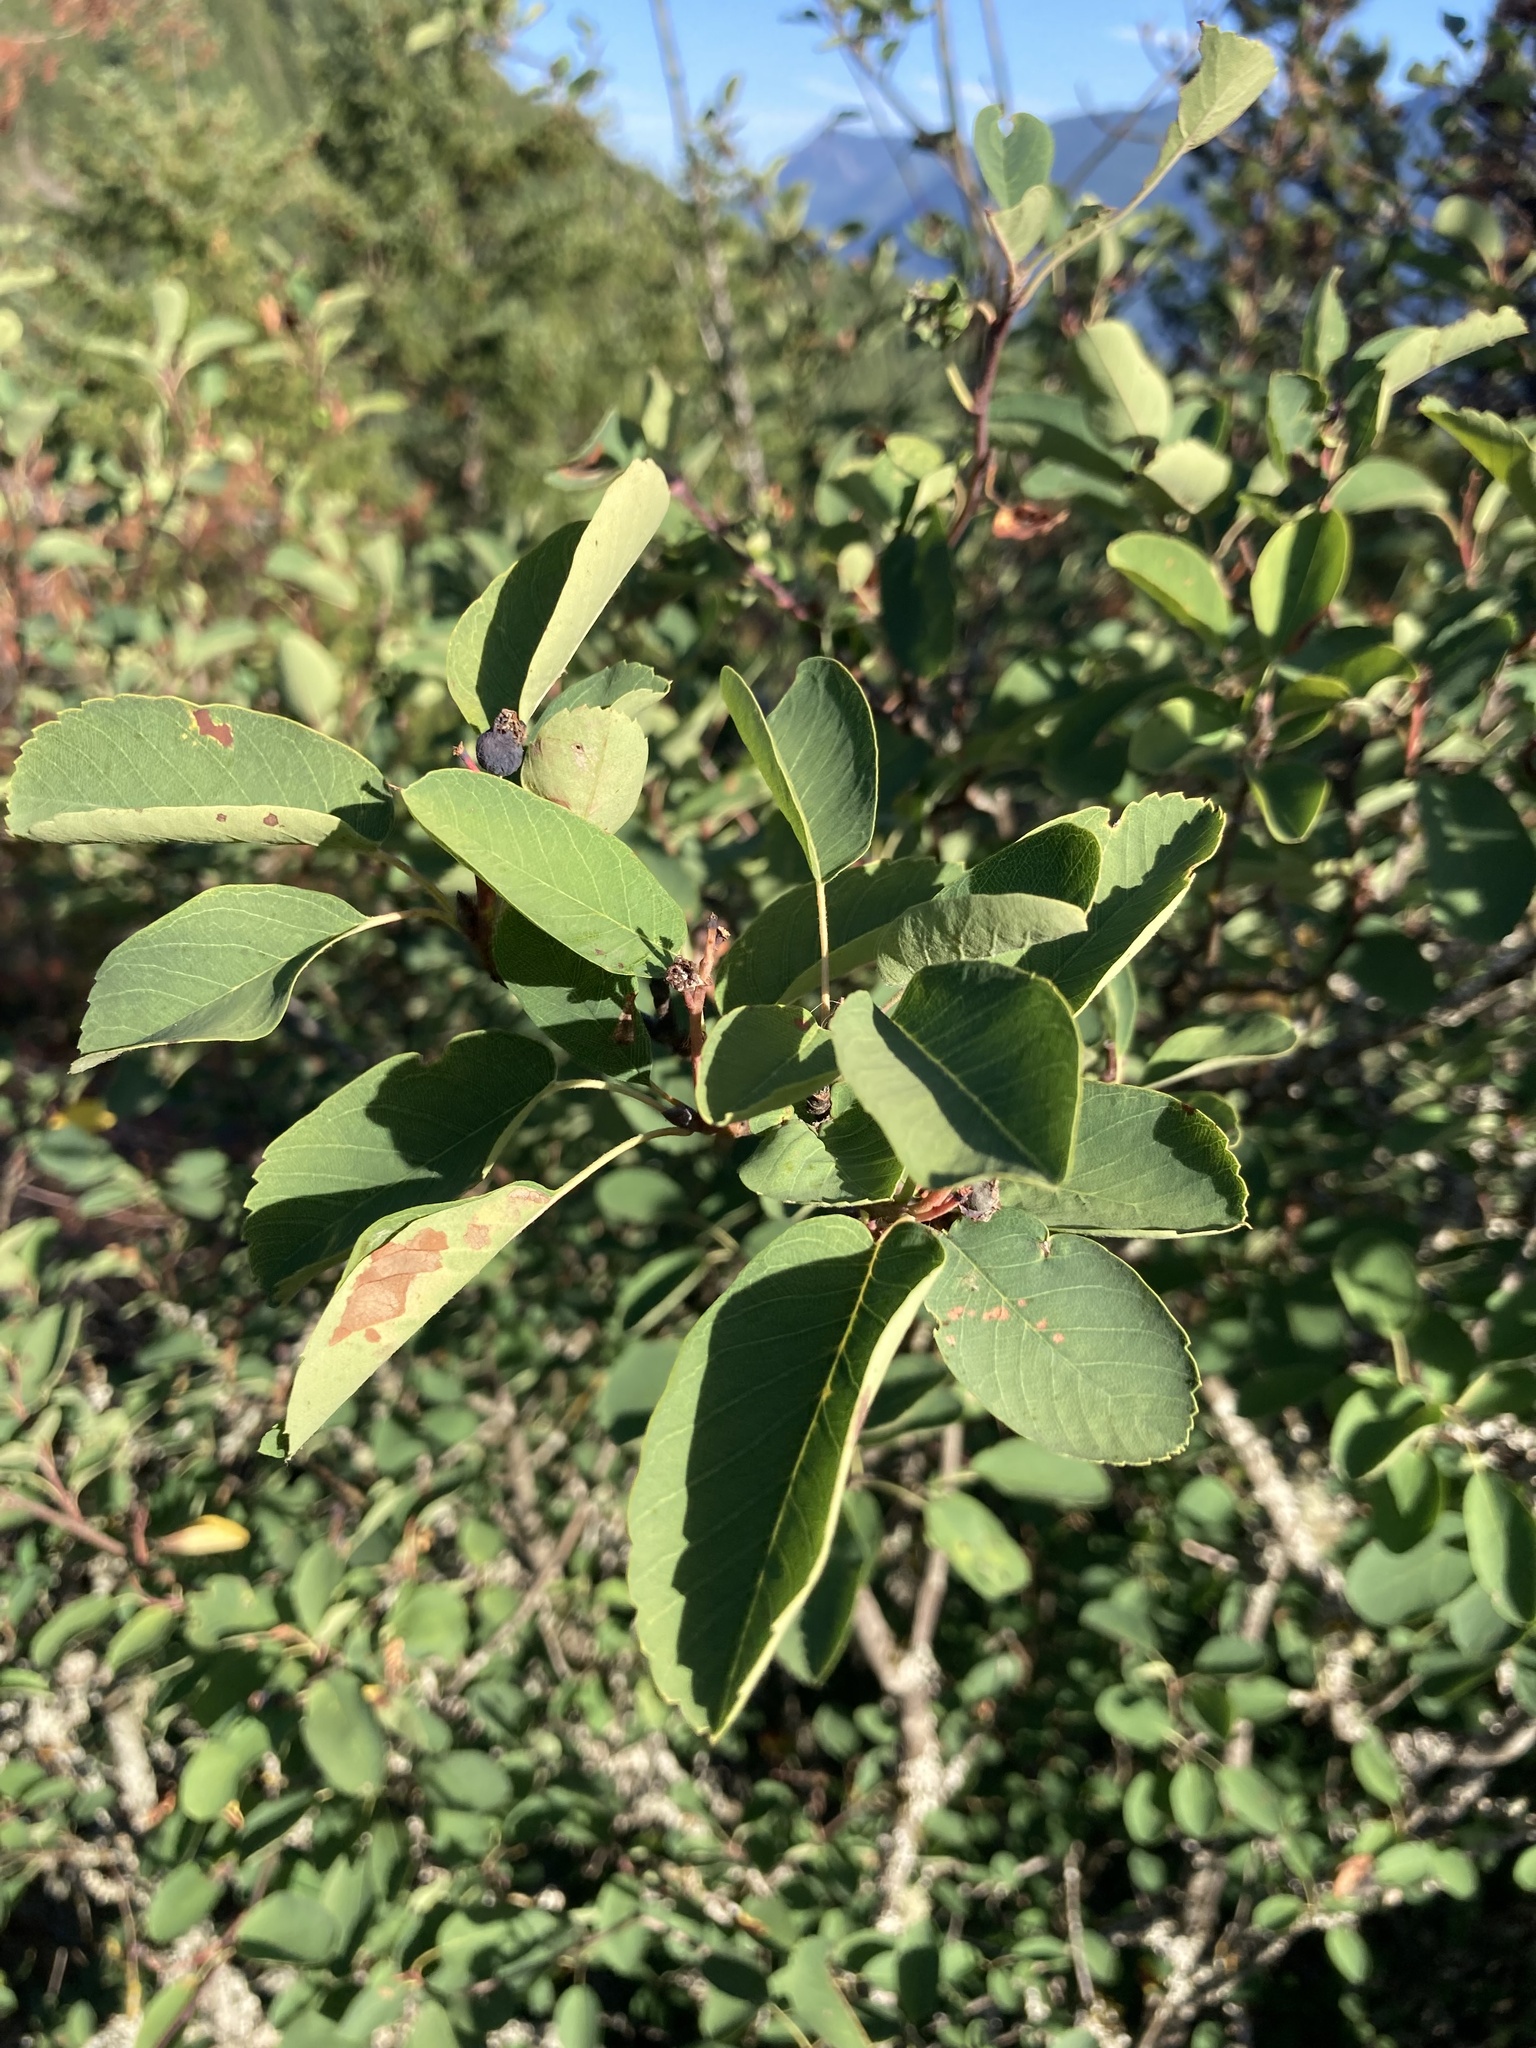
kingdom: Plantae
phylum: Tracheophyta
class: Magnoliopsida
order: Rosales
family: Rosaceae
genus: Amelanchier
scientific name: Amelanchier alnifolia
